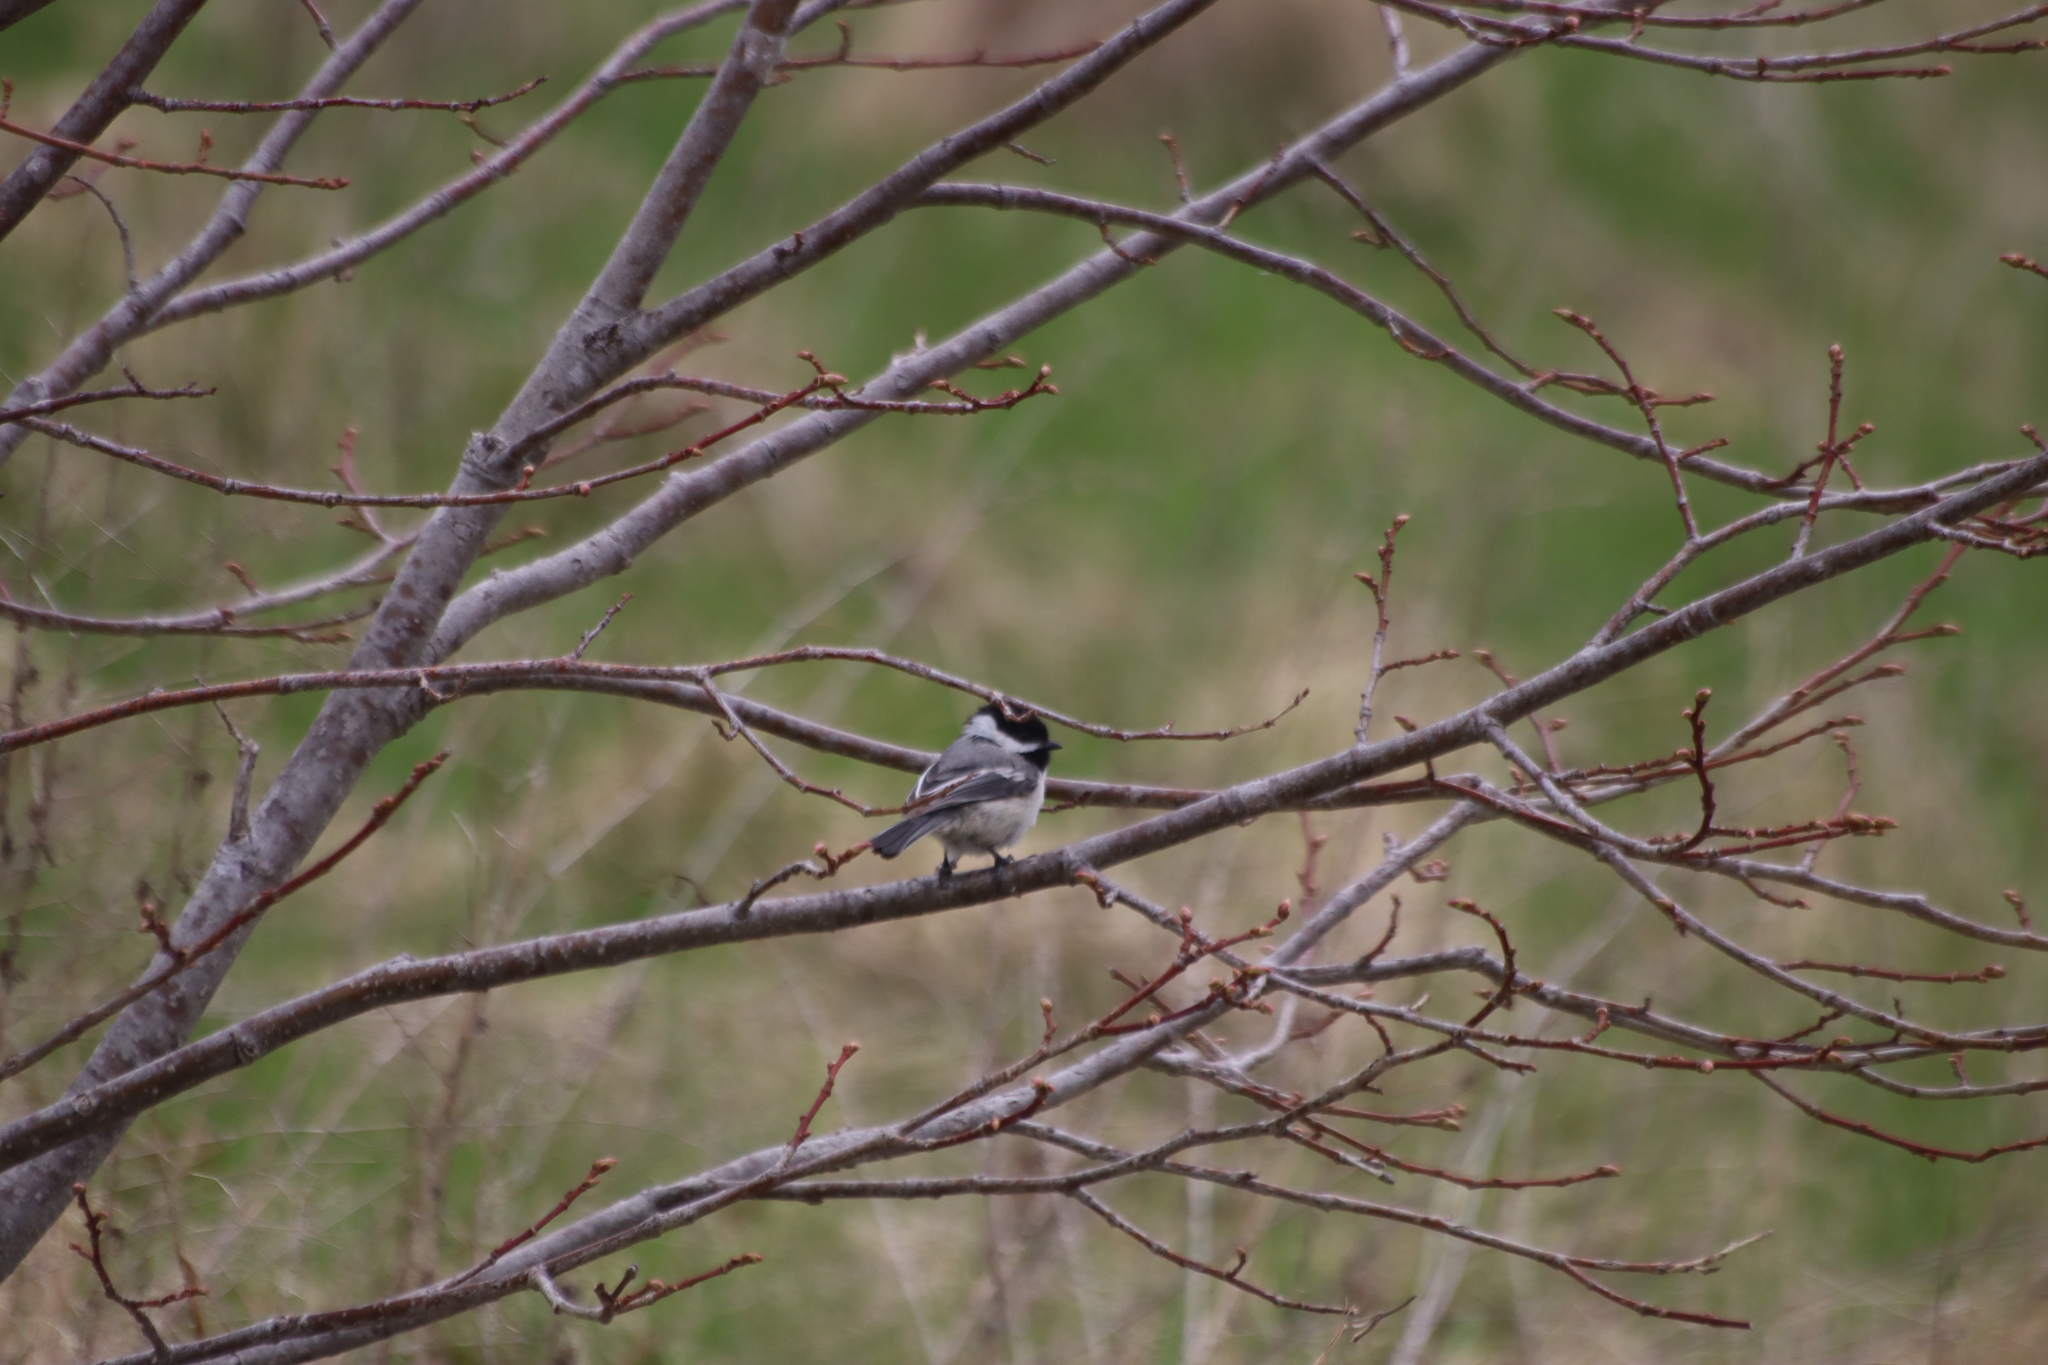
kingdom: Animalia
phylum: Chordata
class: Aves
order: Passeriformes
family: Paridae
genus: Poecile
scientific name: Poecile atricapillus
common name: Black-capped chickadee
